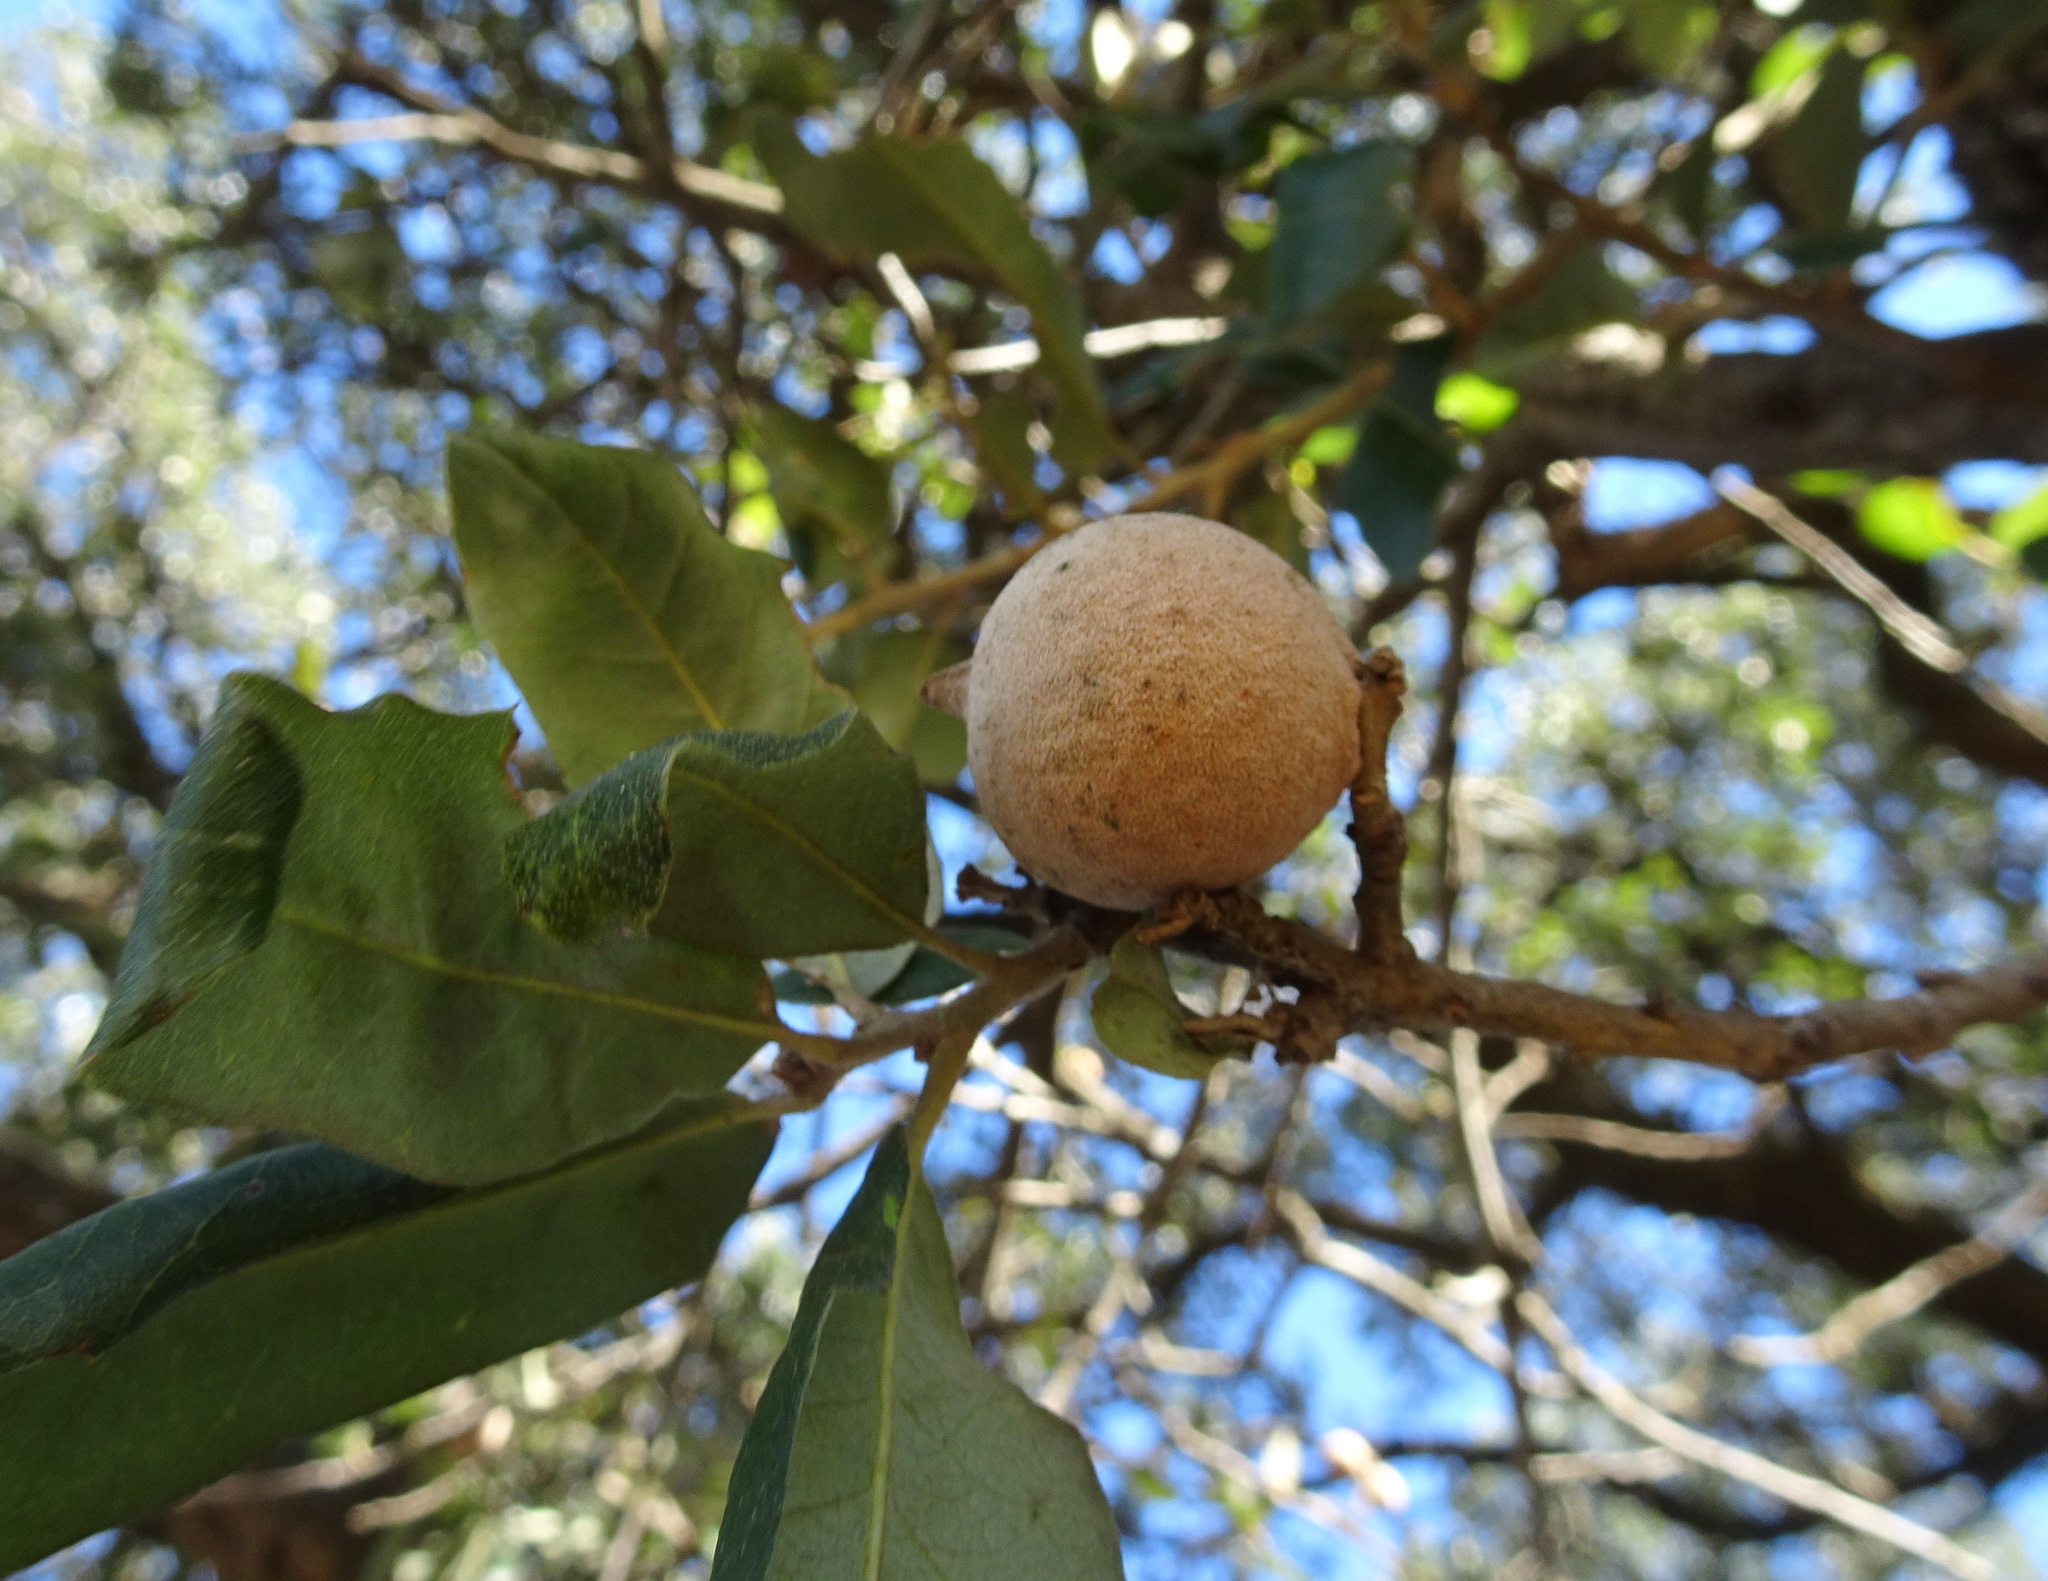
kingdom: Animalia
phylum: Arthropoda
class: Insecta
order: Hymenoptera
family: Cynipidae
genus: Disholcaspis
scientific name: Disholcaspis
